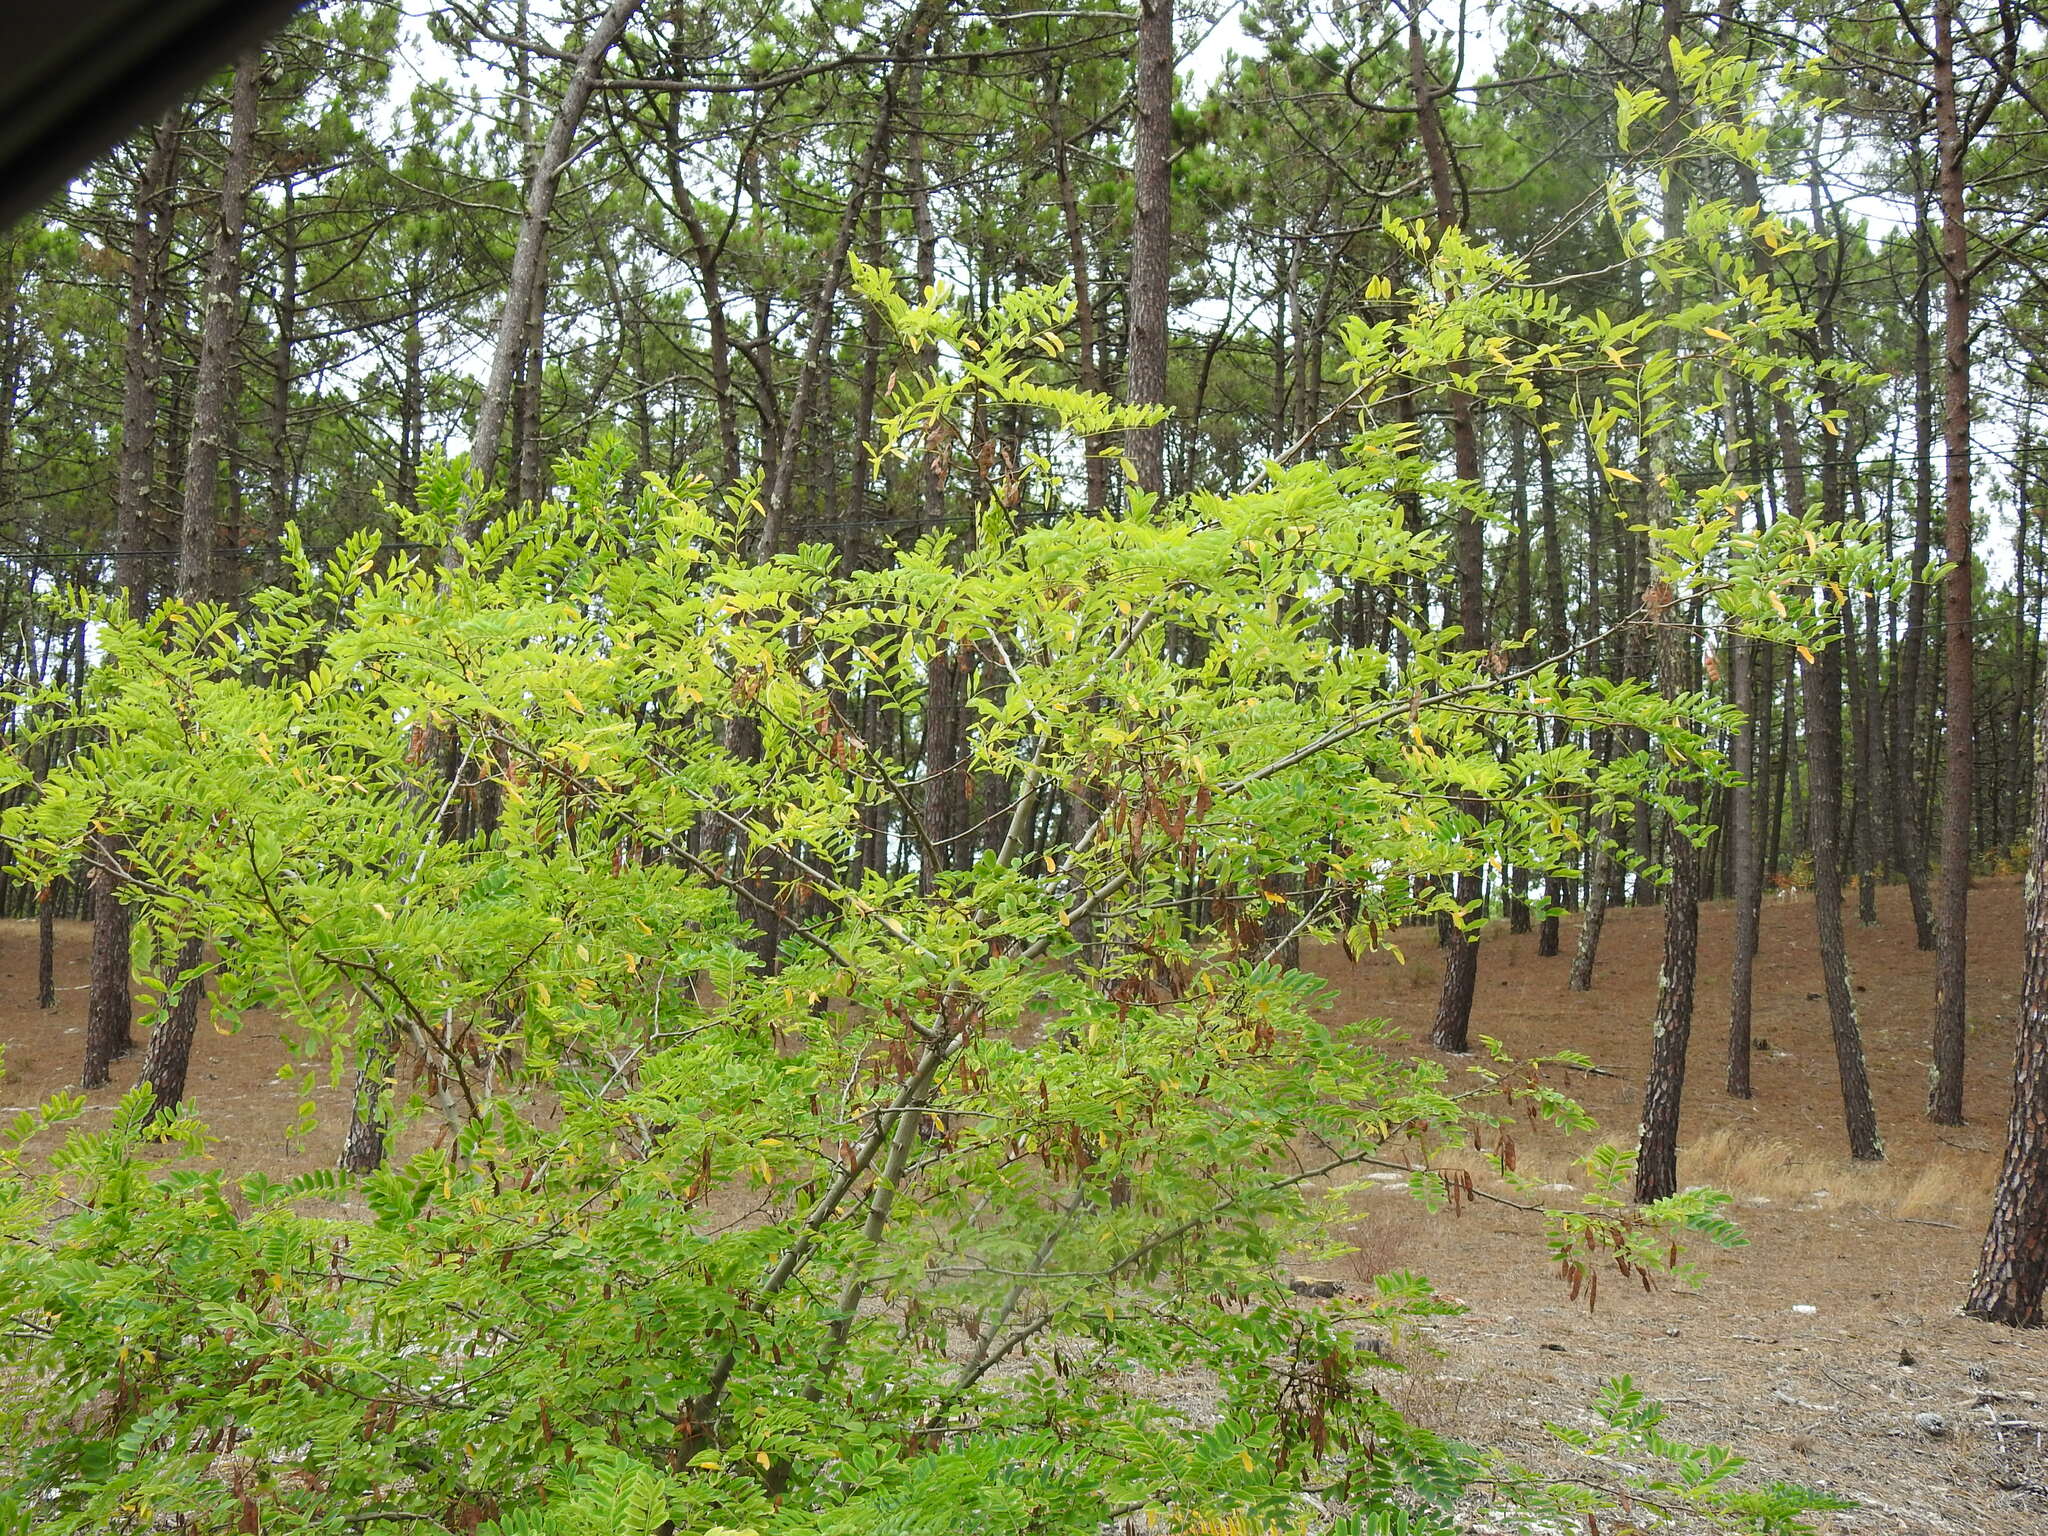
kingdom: Plantae
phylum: Tracheophyta
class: Magnoliopsida
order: Fabales
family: Fabaceae
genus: Robinia
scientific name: Robinia pseudoacacia
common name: Black locust
